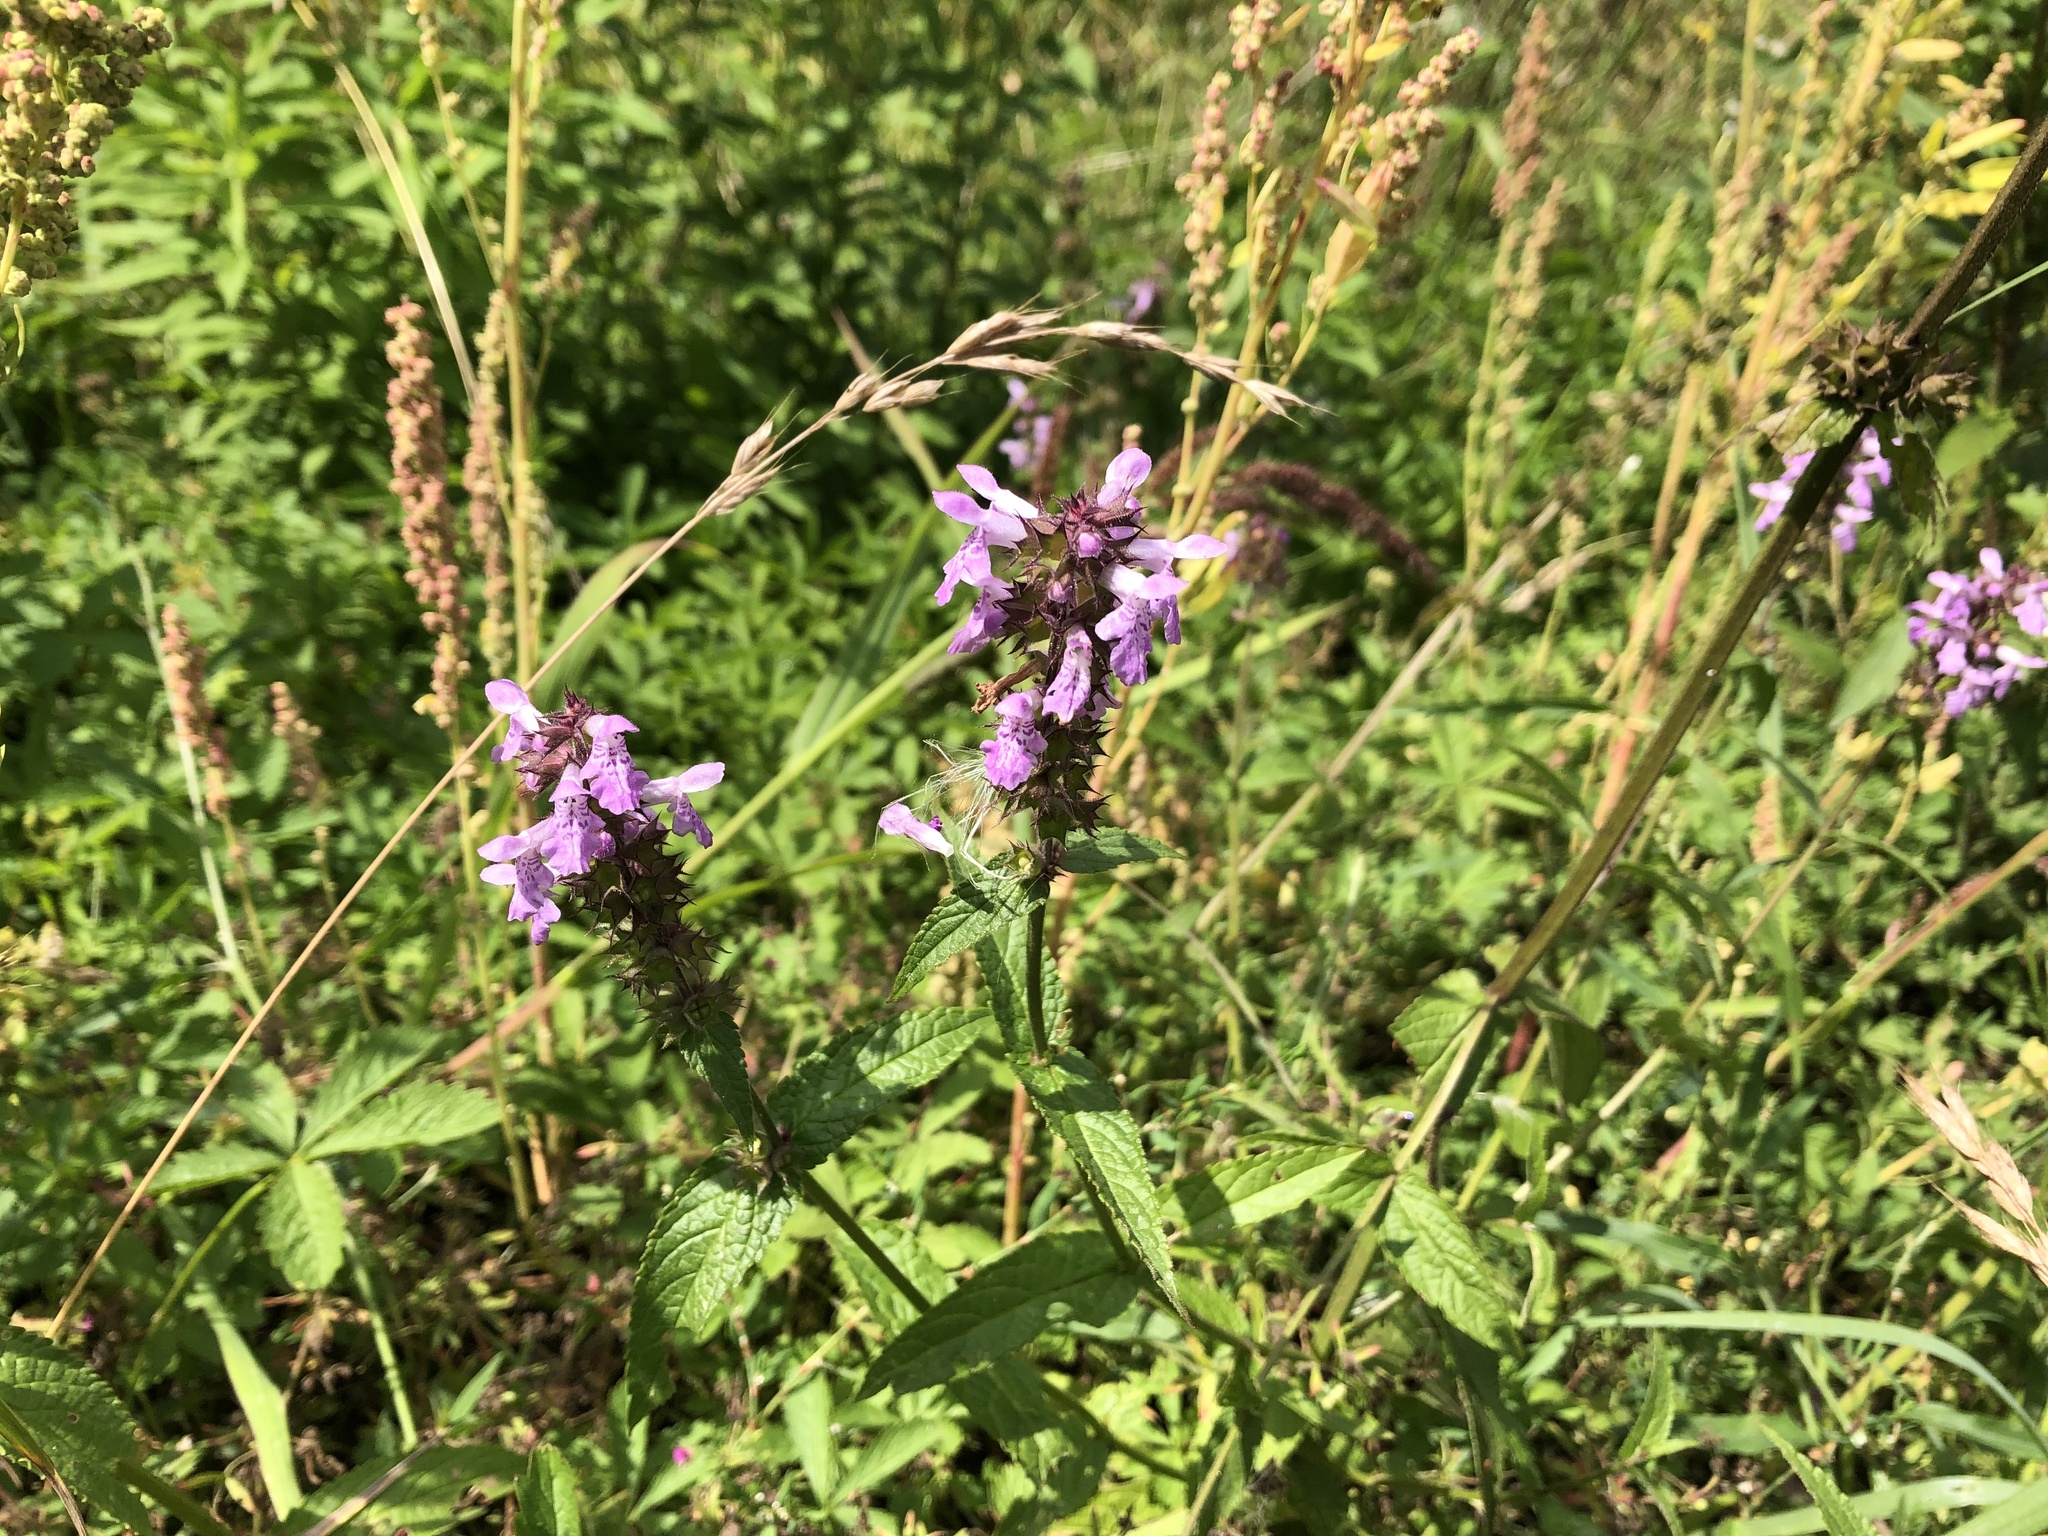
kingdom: Plantae
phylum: Tracheophyta
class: Magnoliopsida
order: Lamiales
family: Lamiaceae
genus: Stachys
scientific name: Stachys palustris
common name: Marsh woundwort
